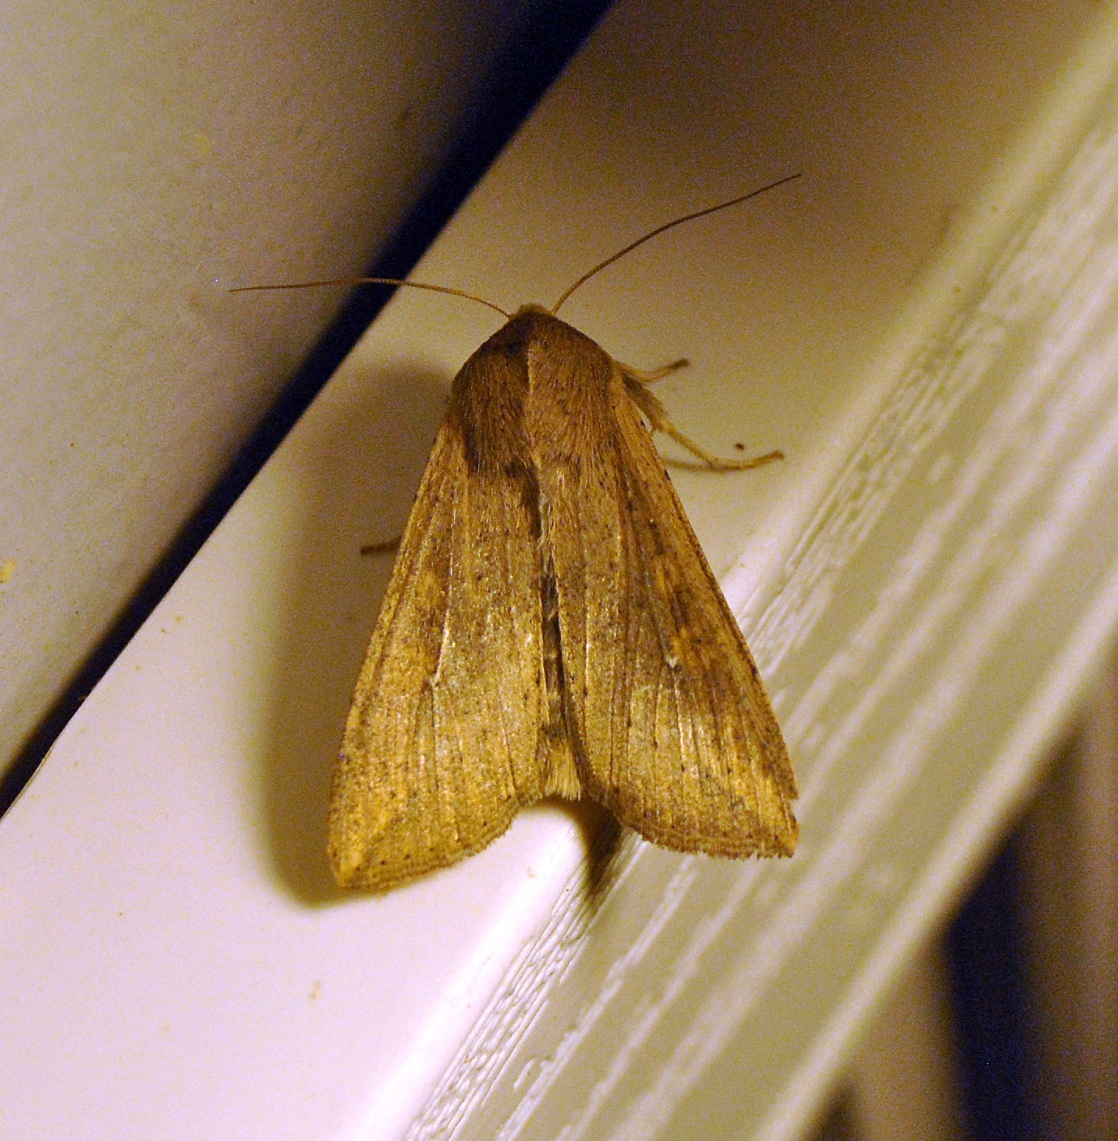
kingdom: Animalia
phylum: Arthropoda
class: Insecta
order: Lepidoptera
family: Noctuidae
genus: Mythimna
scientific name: Mythimna unipuncta
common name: White-speck
